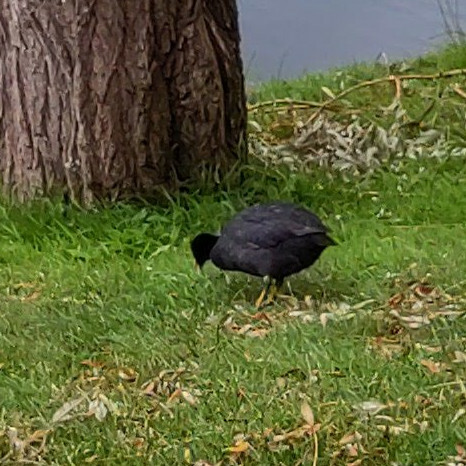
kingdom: Animalia
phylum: Chordata
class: Aves
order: Gruiformes
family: Rallidae
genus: Fulica
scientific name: Fulica atra
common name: Eurasian coot
